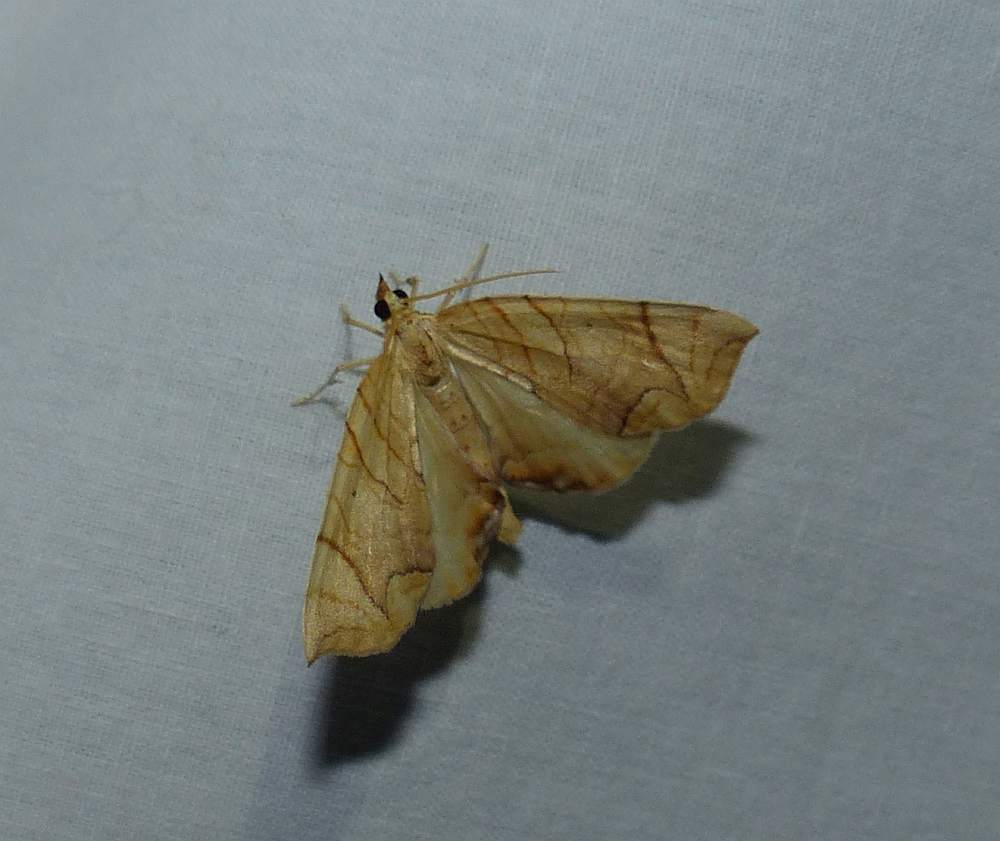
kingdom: Animalia
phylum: Arthropoda
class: Insecta
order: Lepidoptera
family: Geometridae
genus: Eulithis
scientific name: Eulithis
